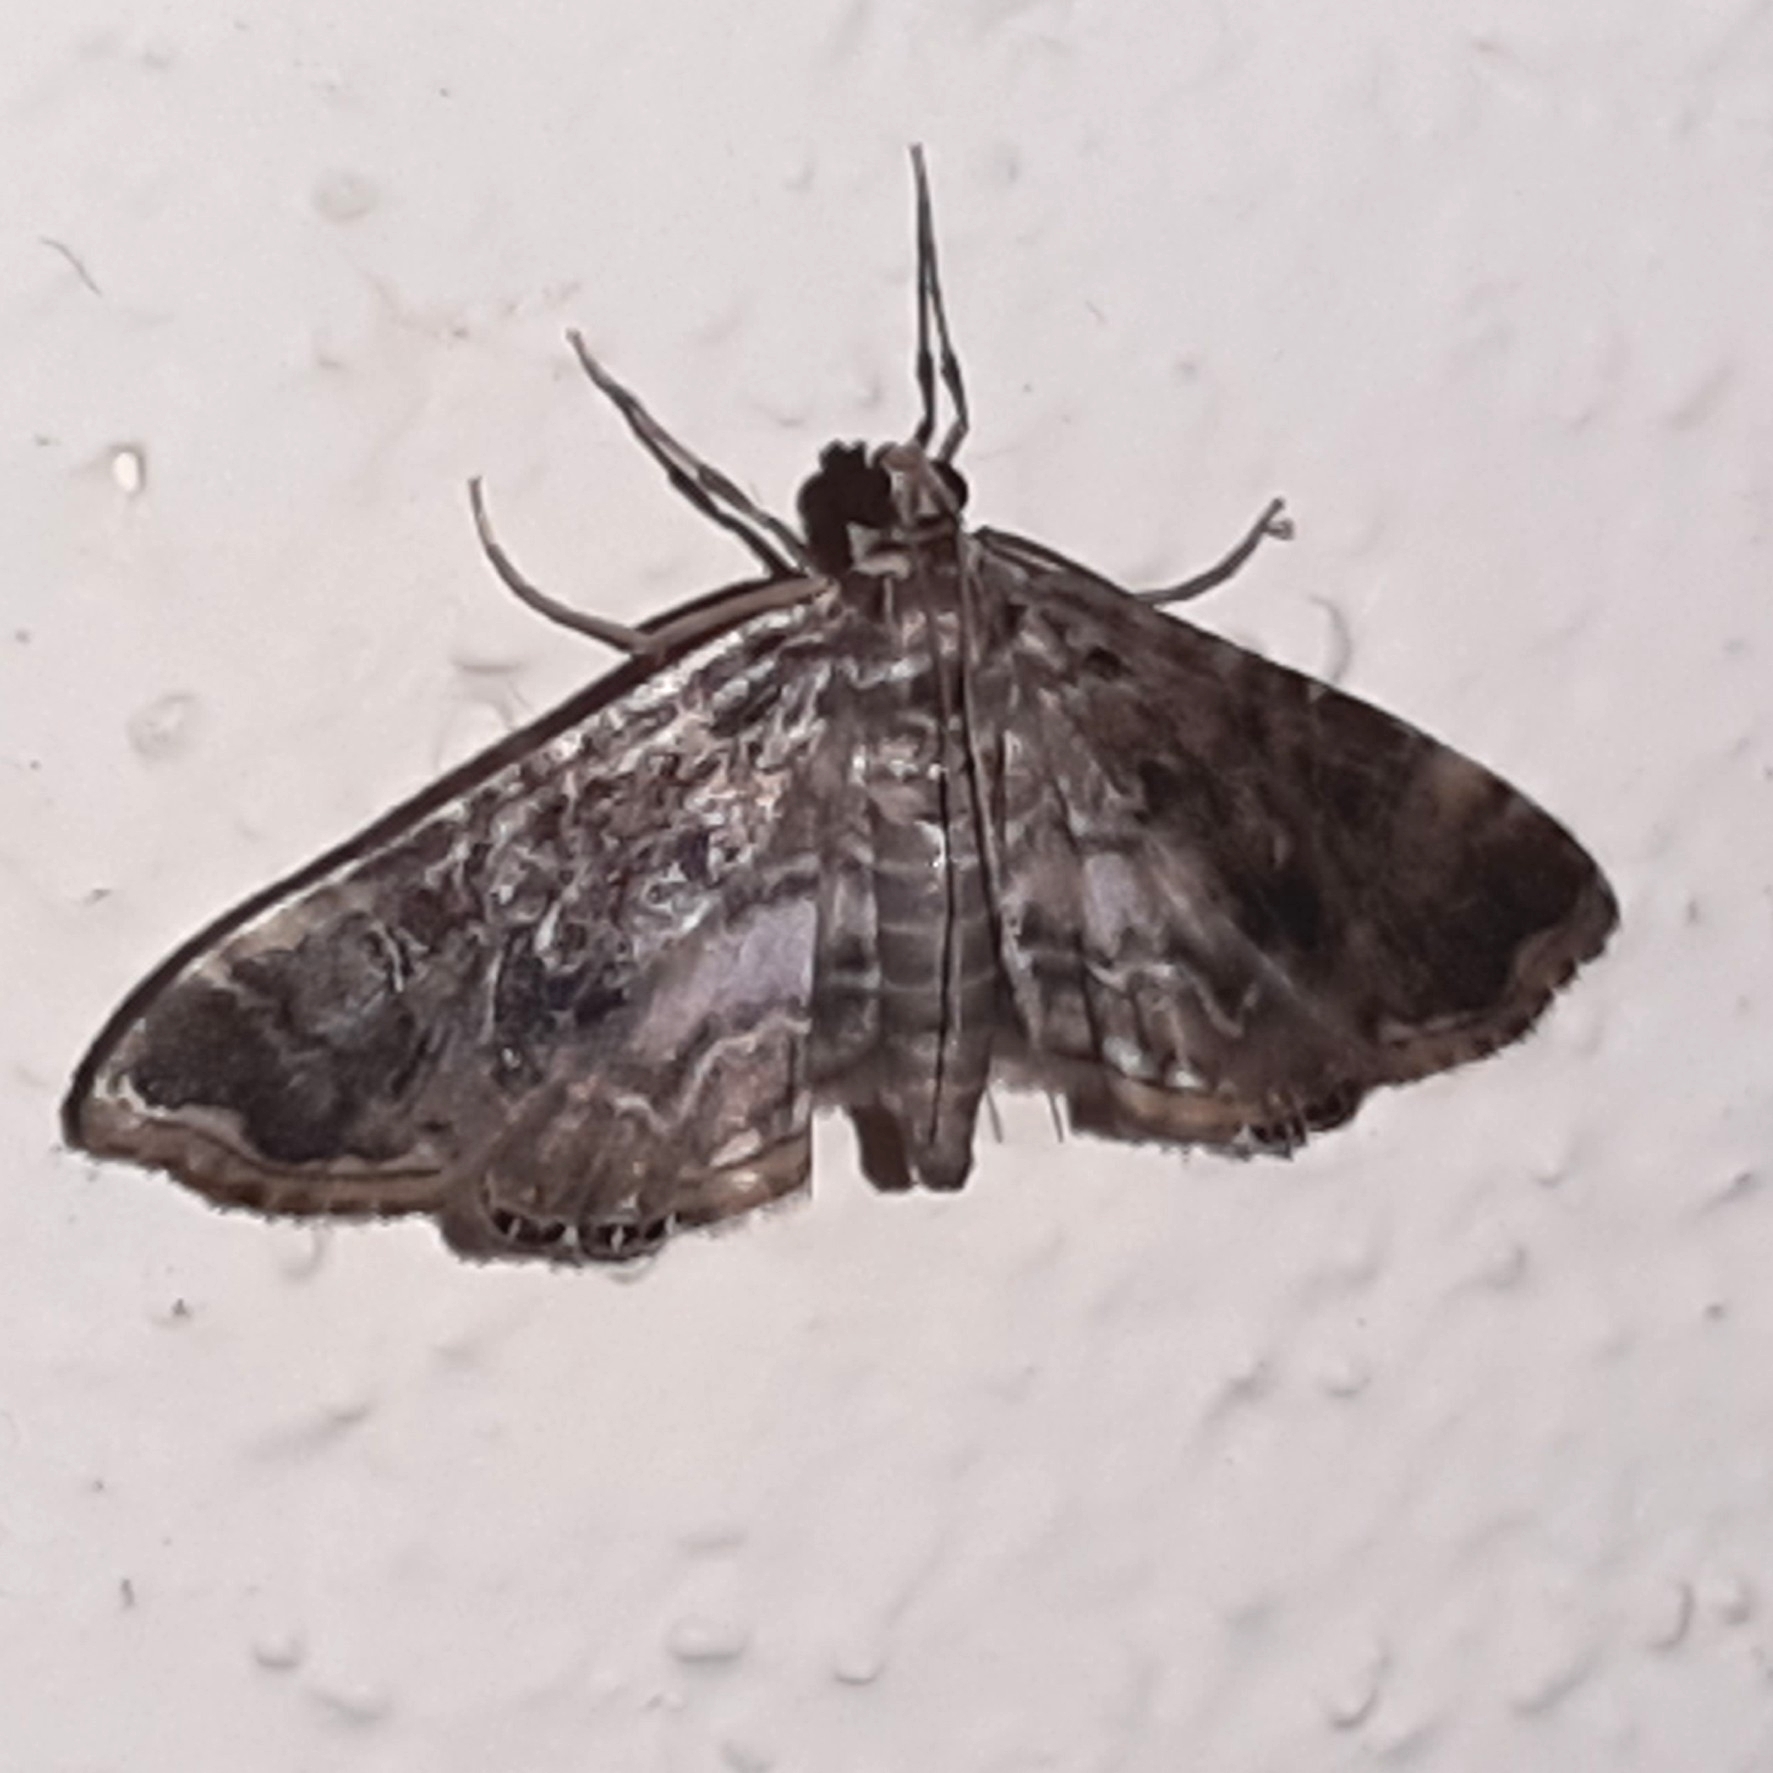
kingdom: Animalia
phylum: Arthropoda
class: Insecta
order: Lepidoptera
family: Crambidae
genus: Oligostigmoides
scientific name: Oligostigmoides
